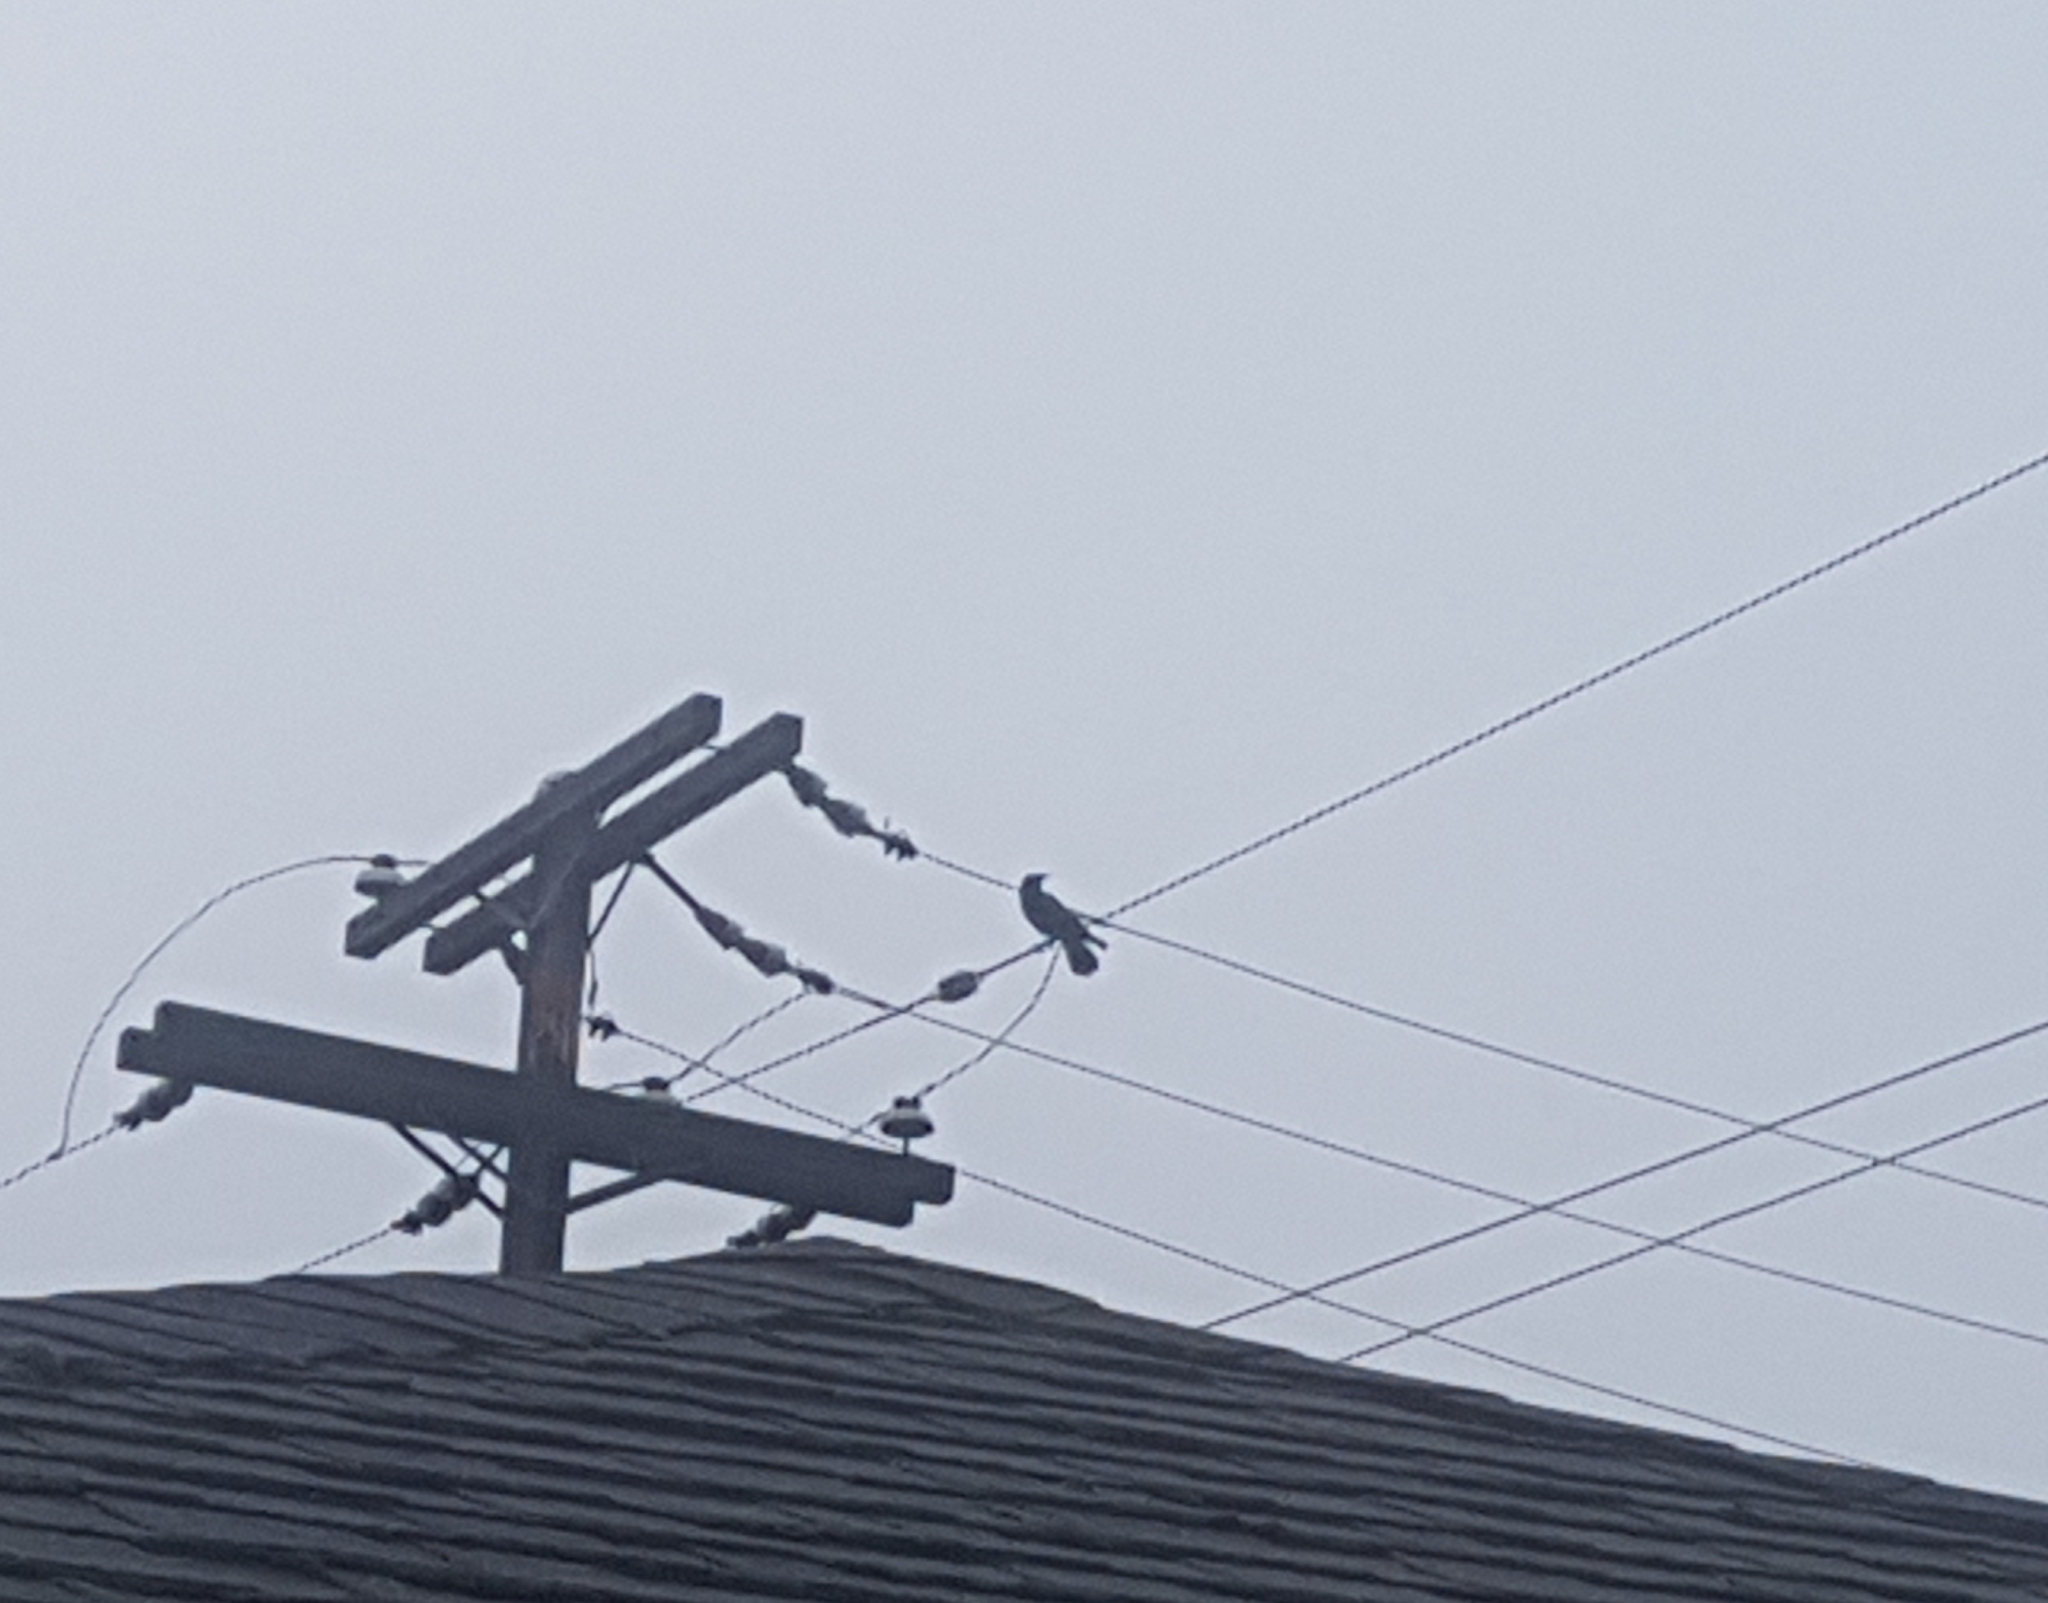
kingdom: Animalia
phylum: Chordata
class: Aves
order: Passeriformes
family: Corvidae
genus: Corvus
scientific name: Corvus brachyrhynchos
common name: American crow
